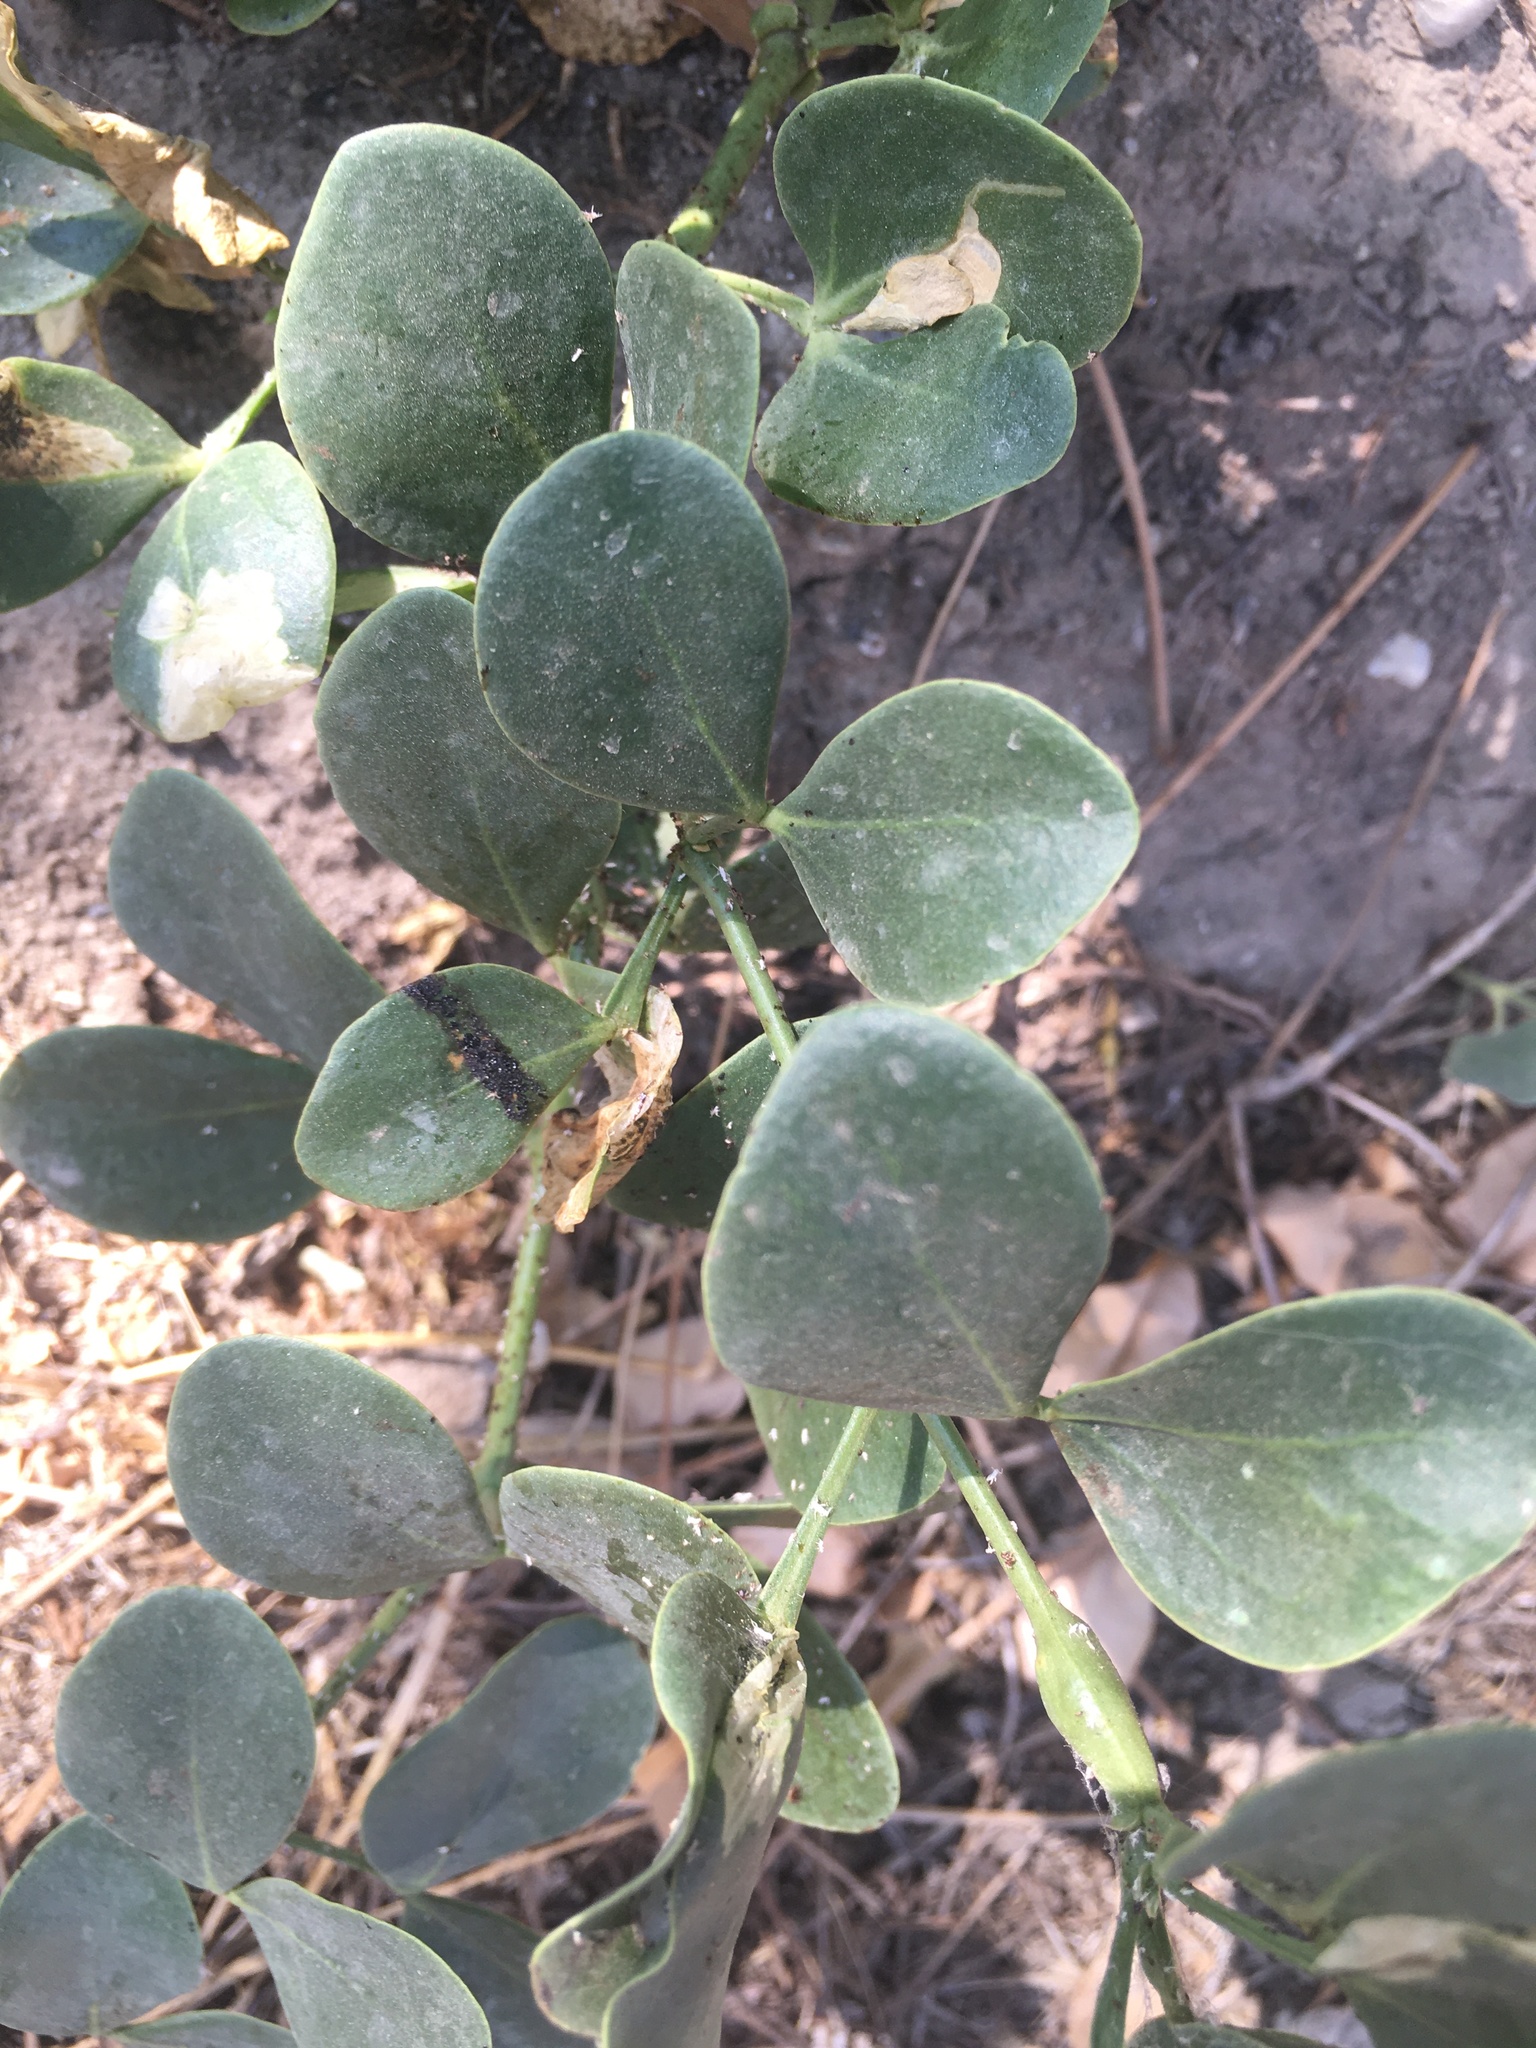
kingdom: Plantae
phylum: Tracheophyta
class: Magnoliopsida
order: Zygophyllales
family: Zygophyllaceae
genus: Zygophyllum
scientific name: Zygophyllum fabago
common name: Syrian beancaper
